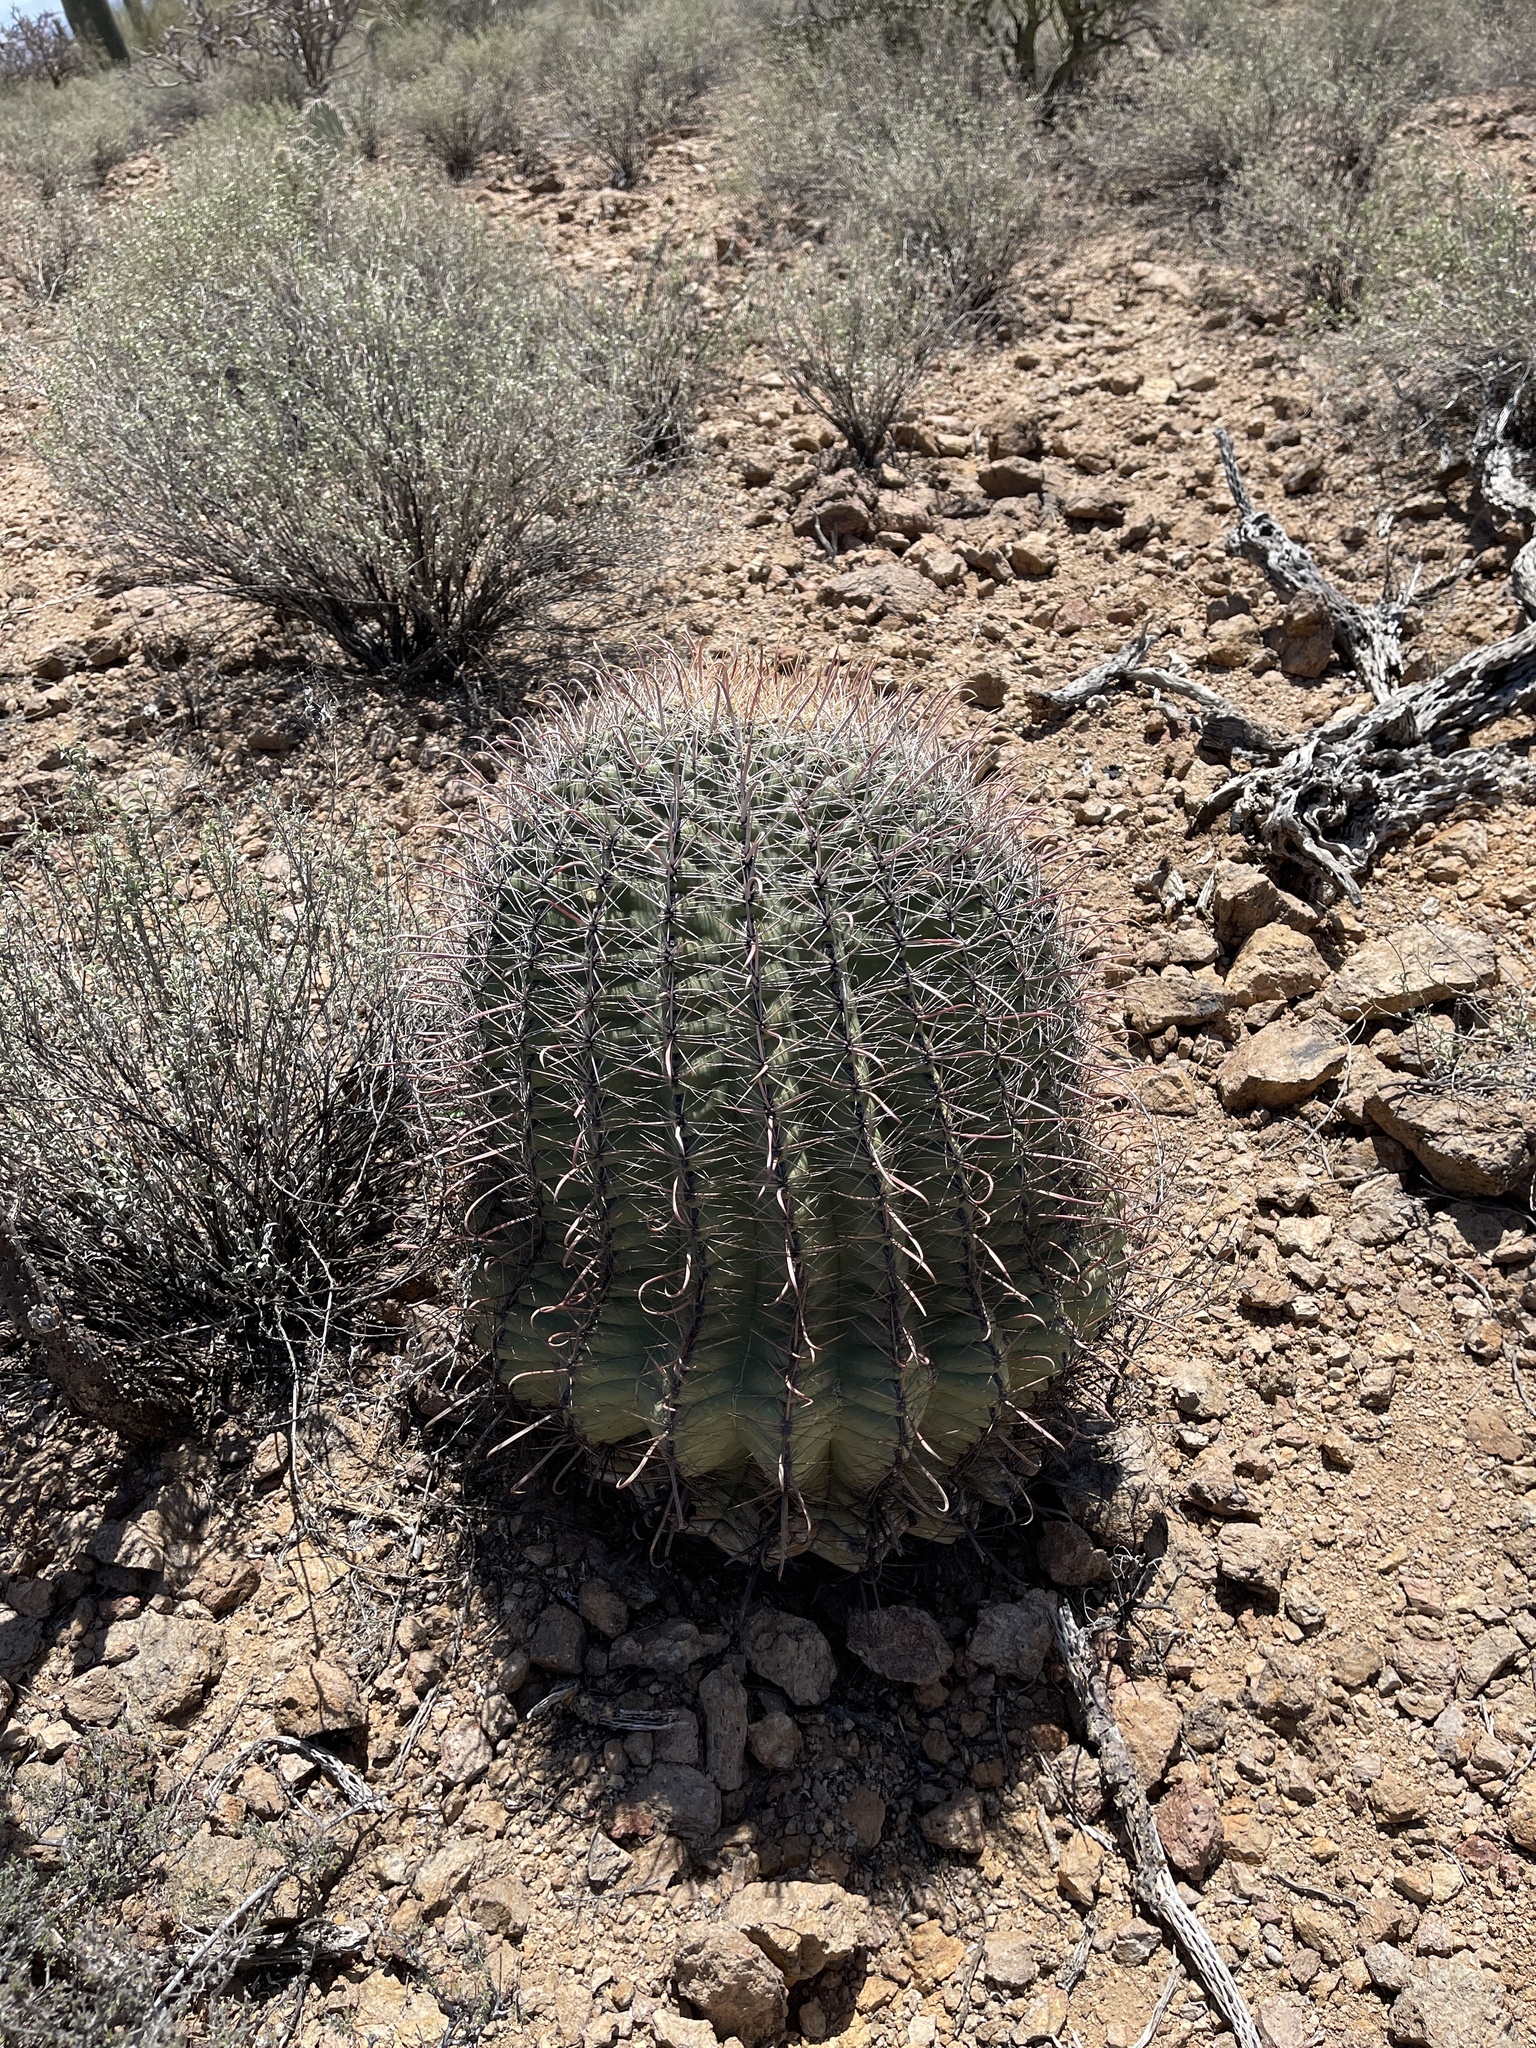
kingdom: Plantae
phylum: Tracheophyta
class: Magnoliopsida
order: Caryophyllales
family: Cactaceae
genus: Ferocactus
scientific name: Ferocactus wislizeni
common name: Candy barrel cactus
